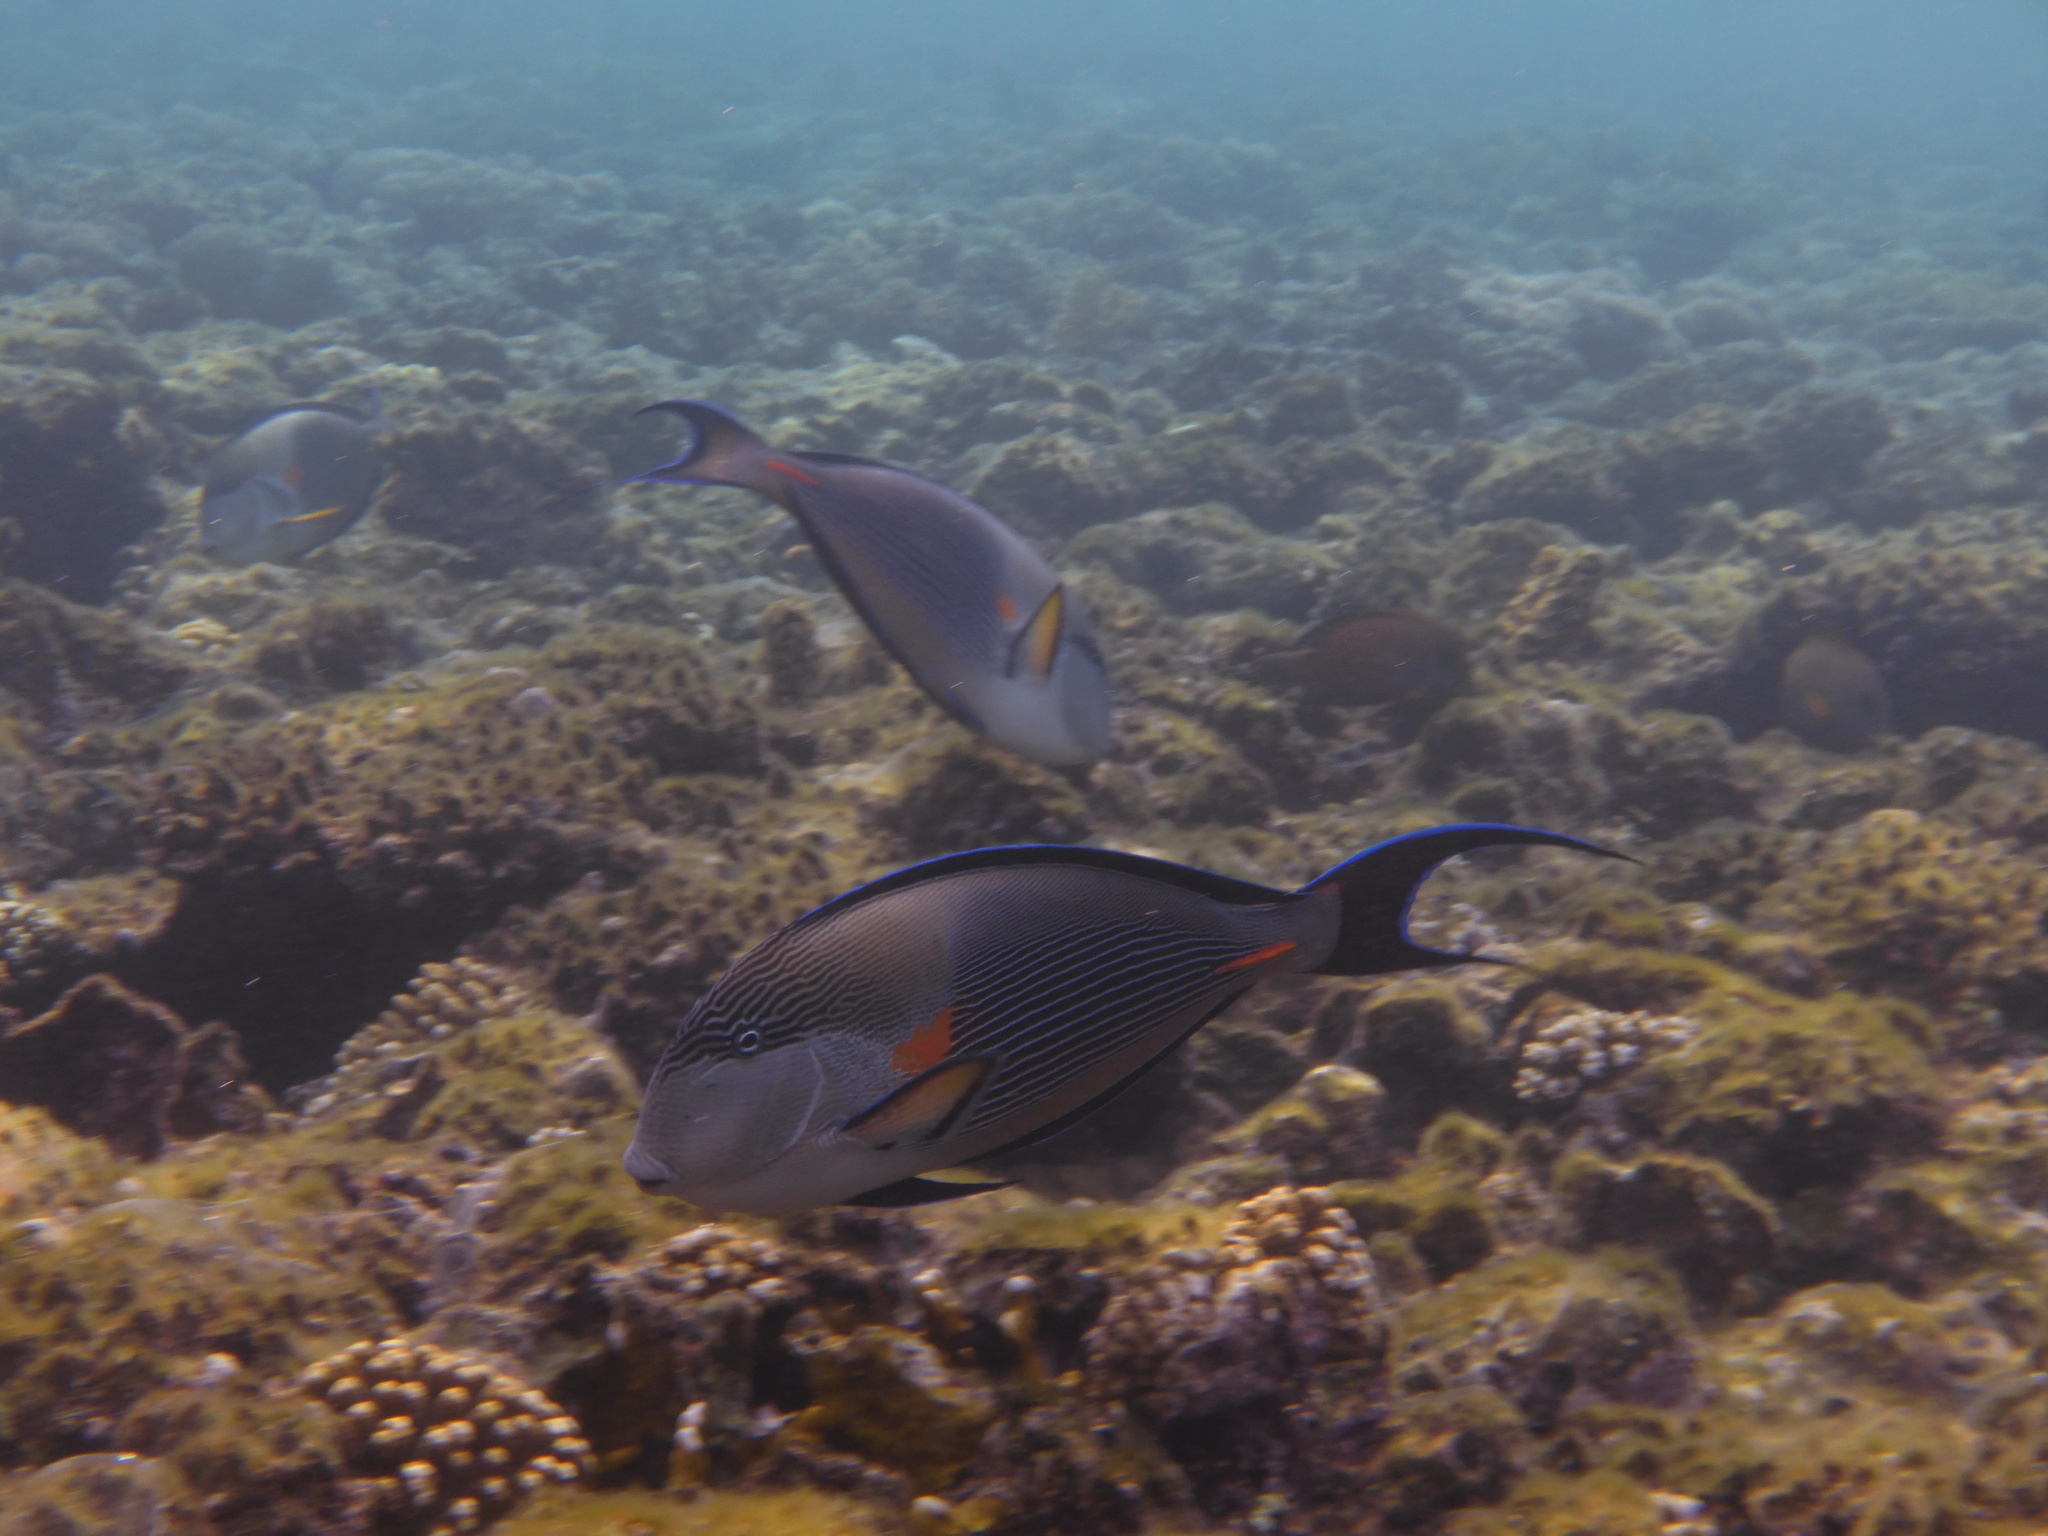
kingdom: Animalia
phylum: Chordata
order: Perciformes
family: Acanthuridae
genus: Acanthurus
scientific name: Acanthurus sohal
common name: Red sea surgeonfish
